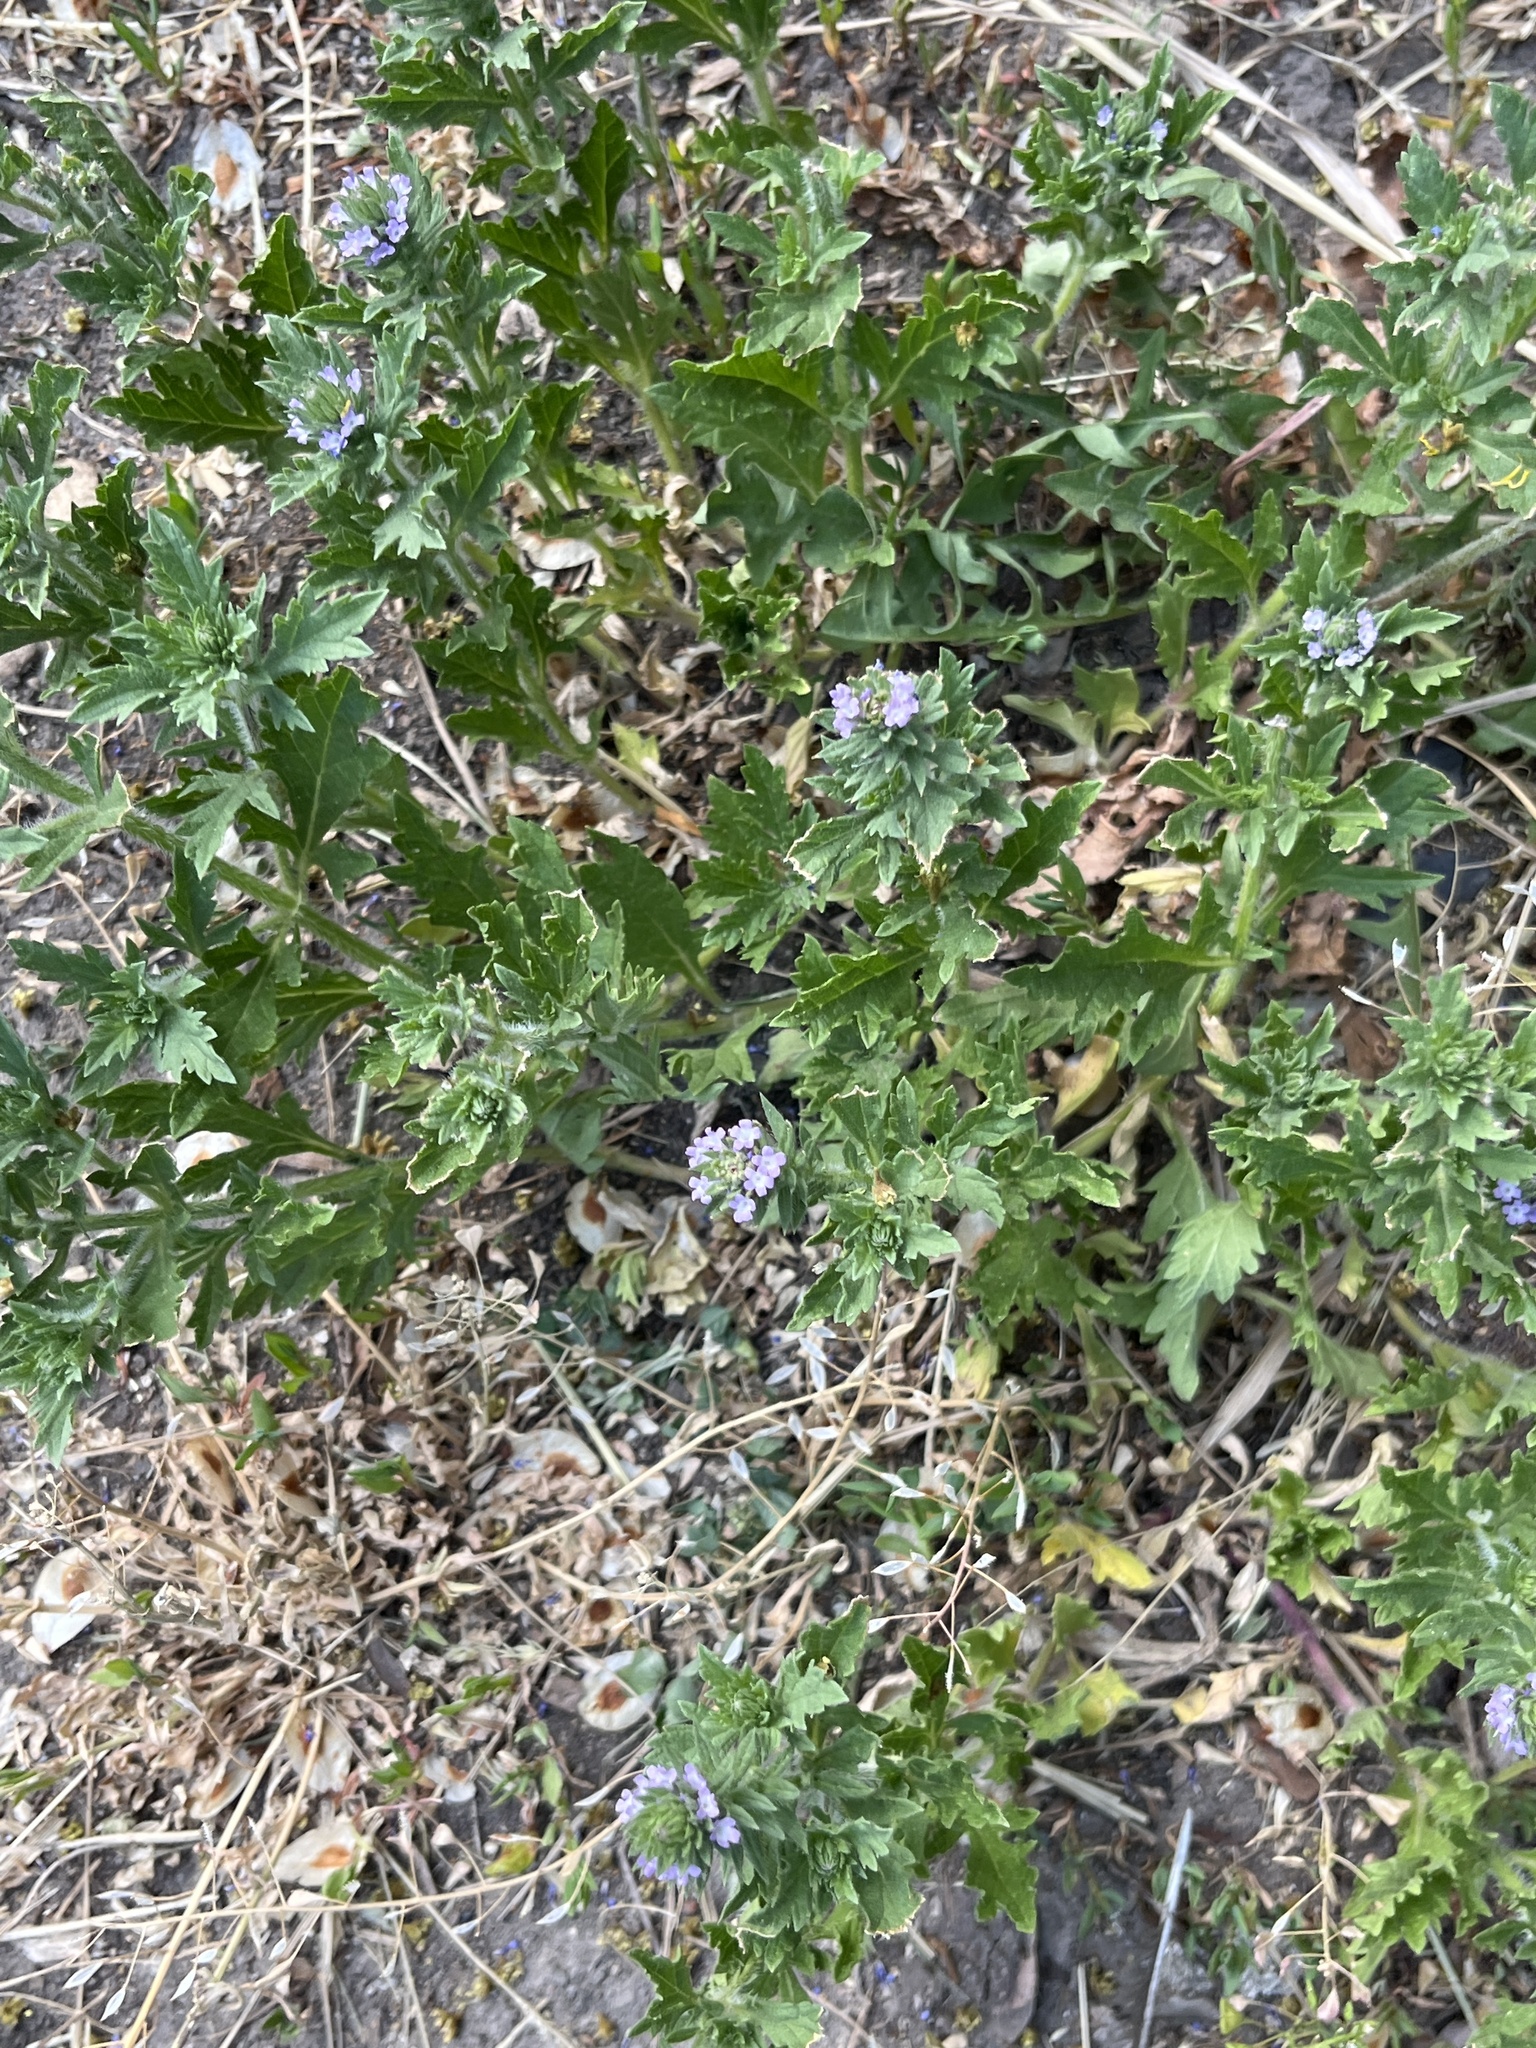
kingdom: Plantae
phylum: Tracheophyta
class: Magnoliopsida
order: Lamiales
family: Verbenaceae
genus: Verbena
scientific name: Verbena bracteata
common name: Bracted vervain
